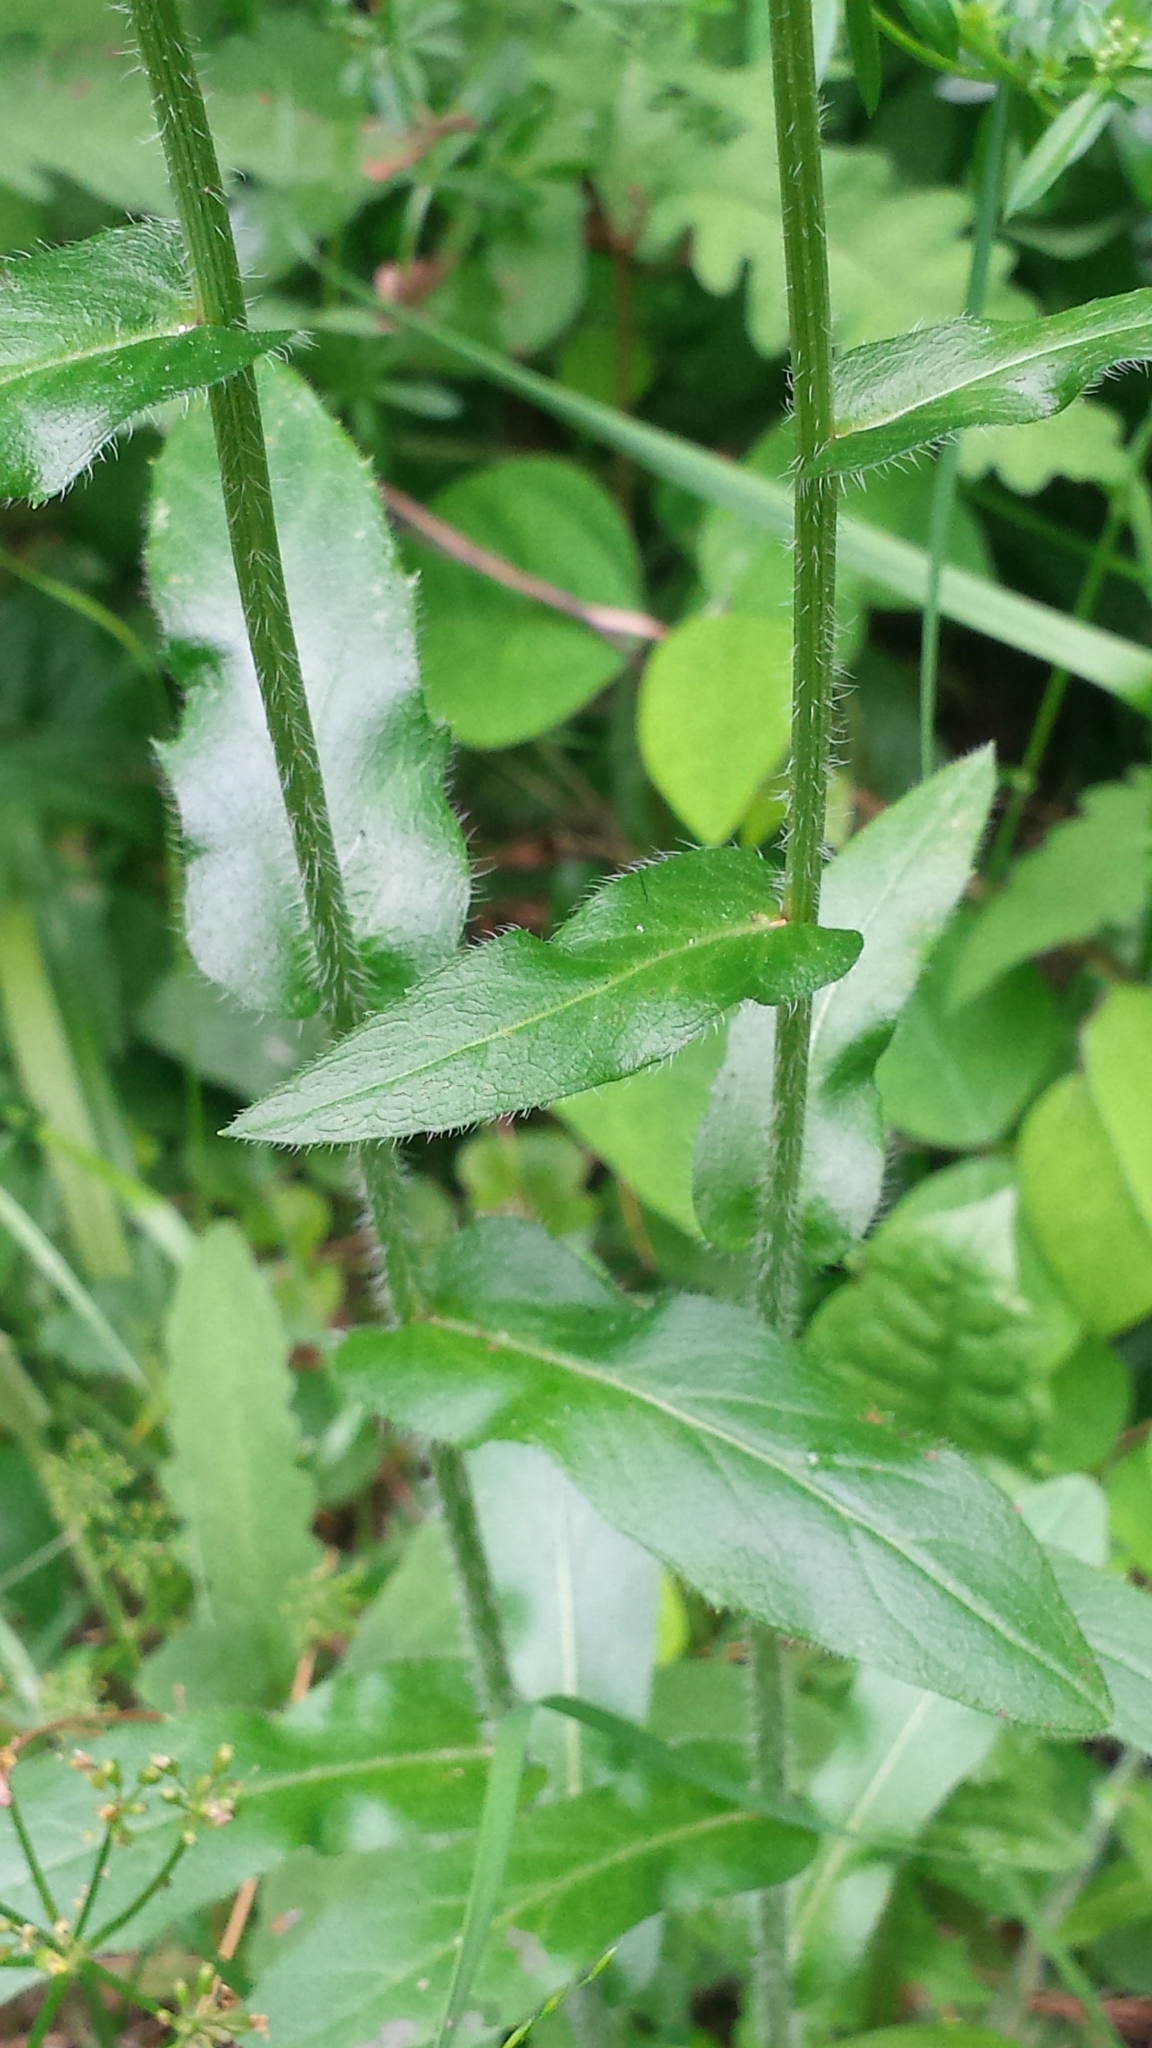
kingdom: Plantae
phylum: Tracheophyta
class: Magnoliopsida
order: Asterales
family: Asteraceae
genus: Erigeron
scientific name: Erigeron philadelphicus
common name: Robin's-plantain
